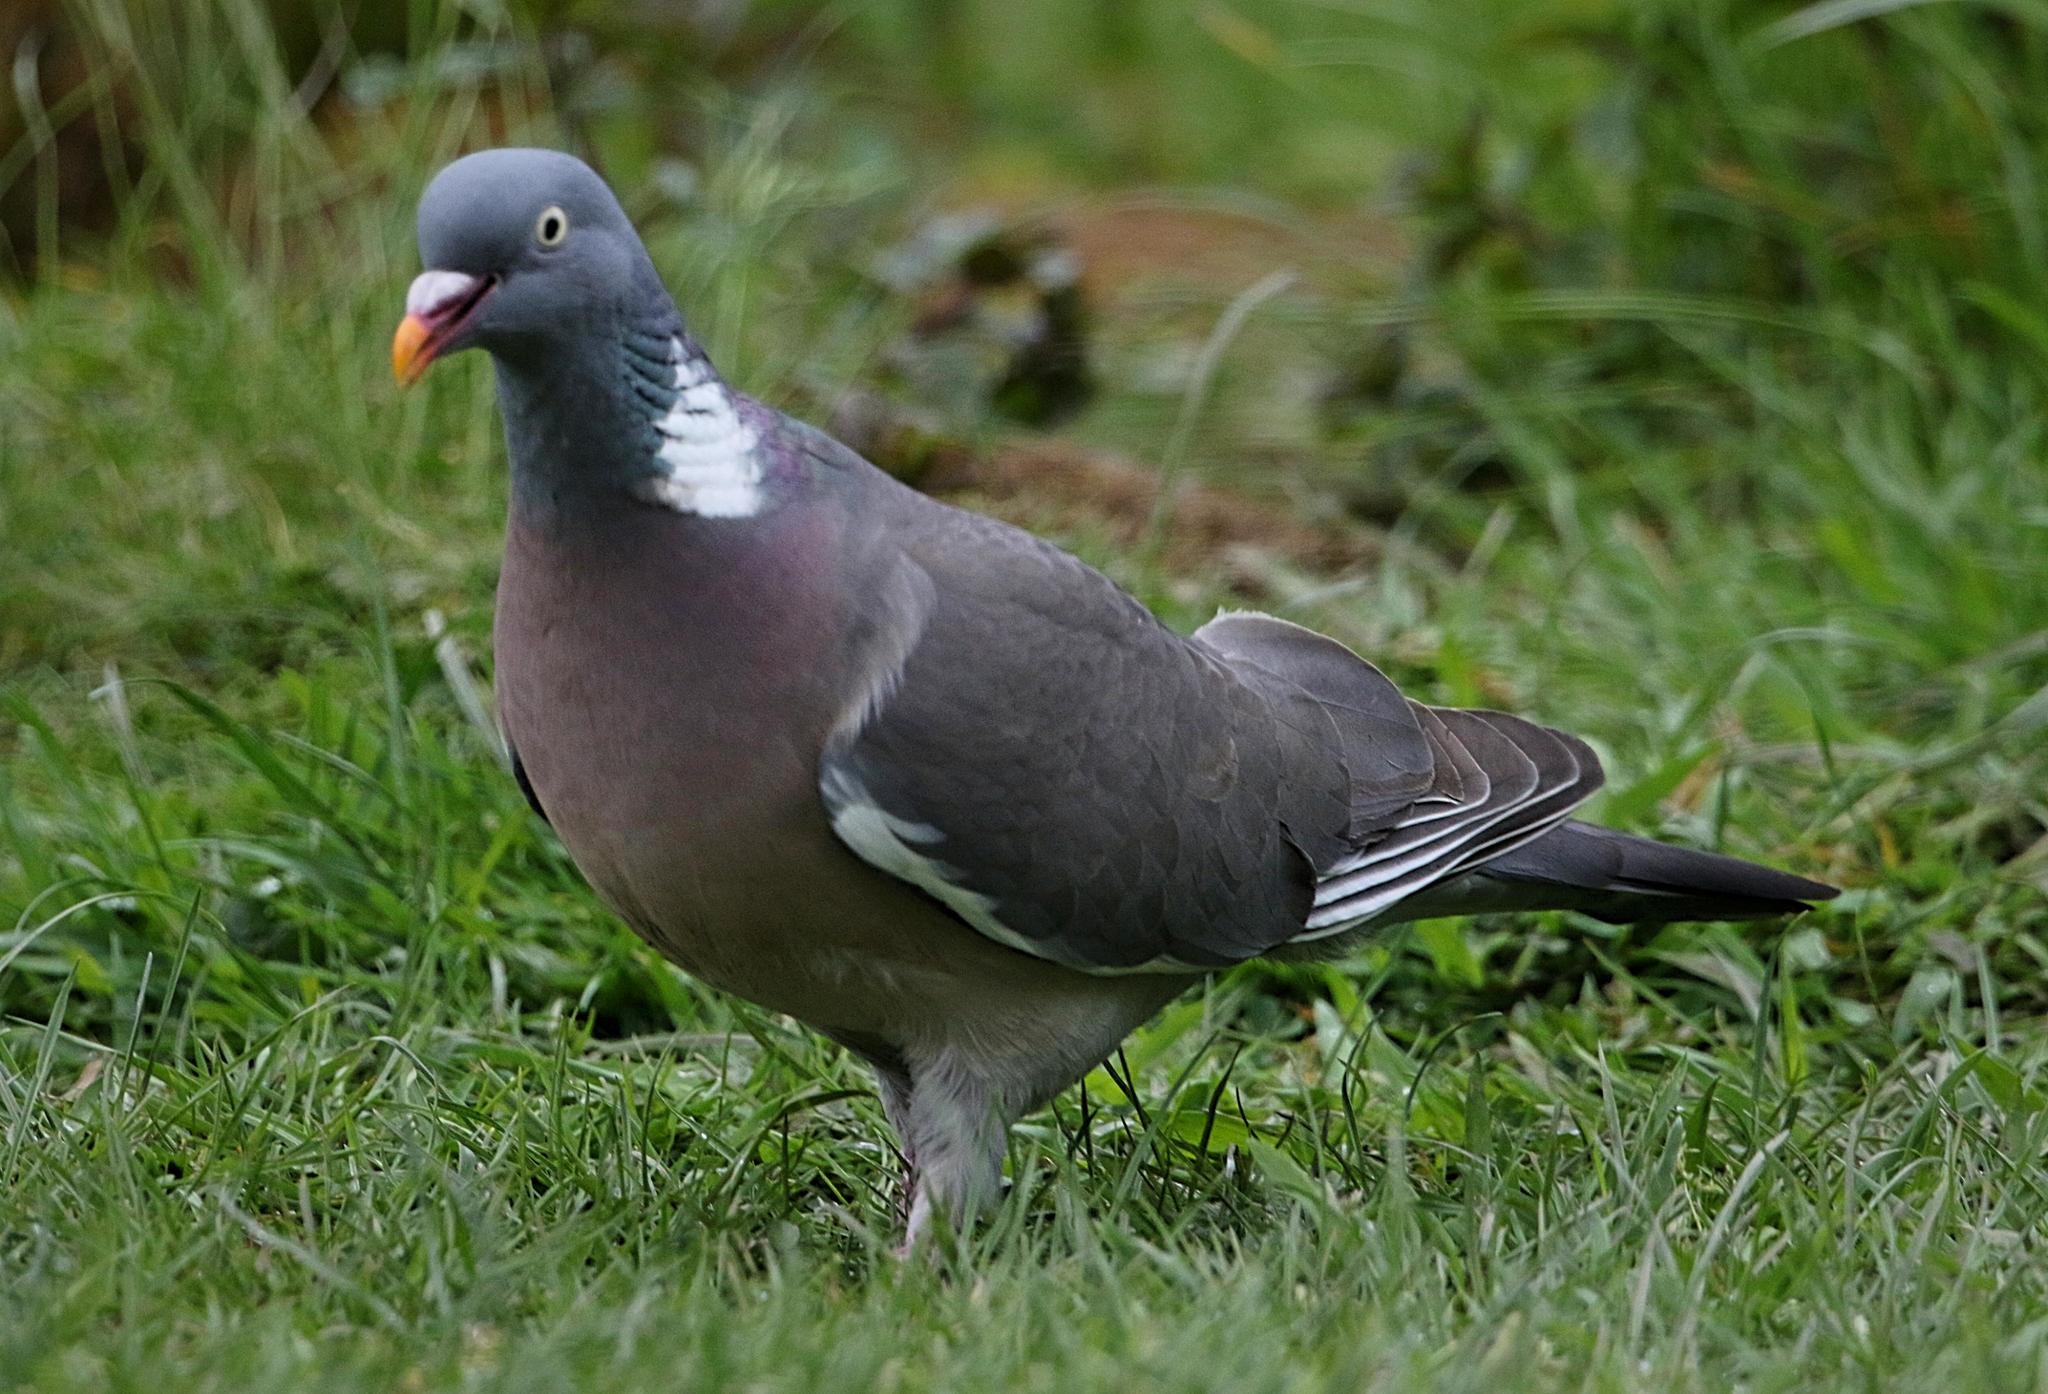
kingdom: Animalia
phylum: Chordata
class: Aves
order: Columbiformes
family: Columbidae
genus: Columba
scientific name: Columba palumbus
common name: Common wood pigeon
